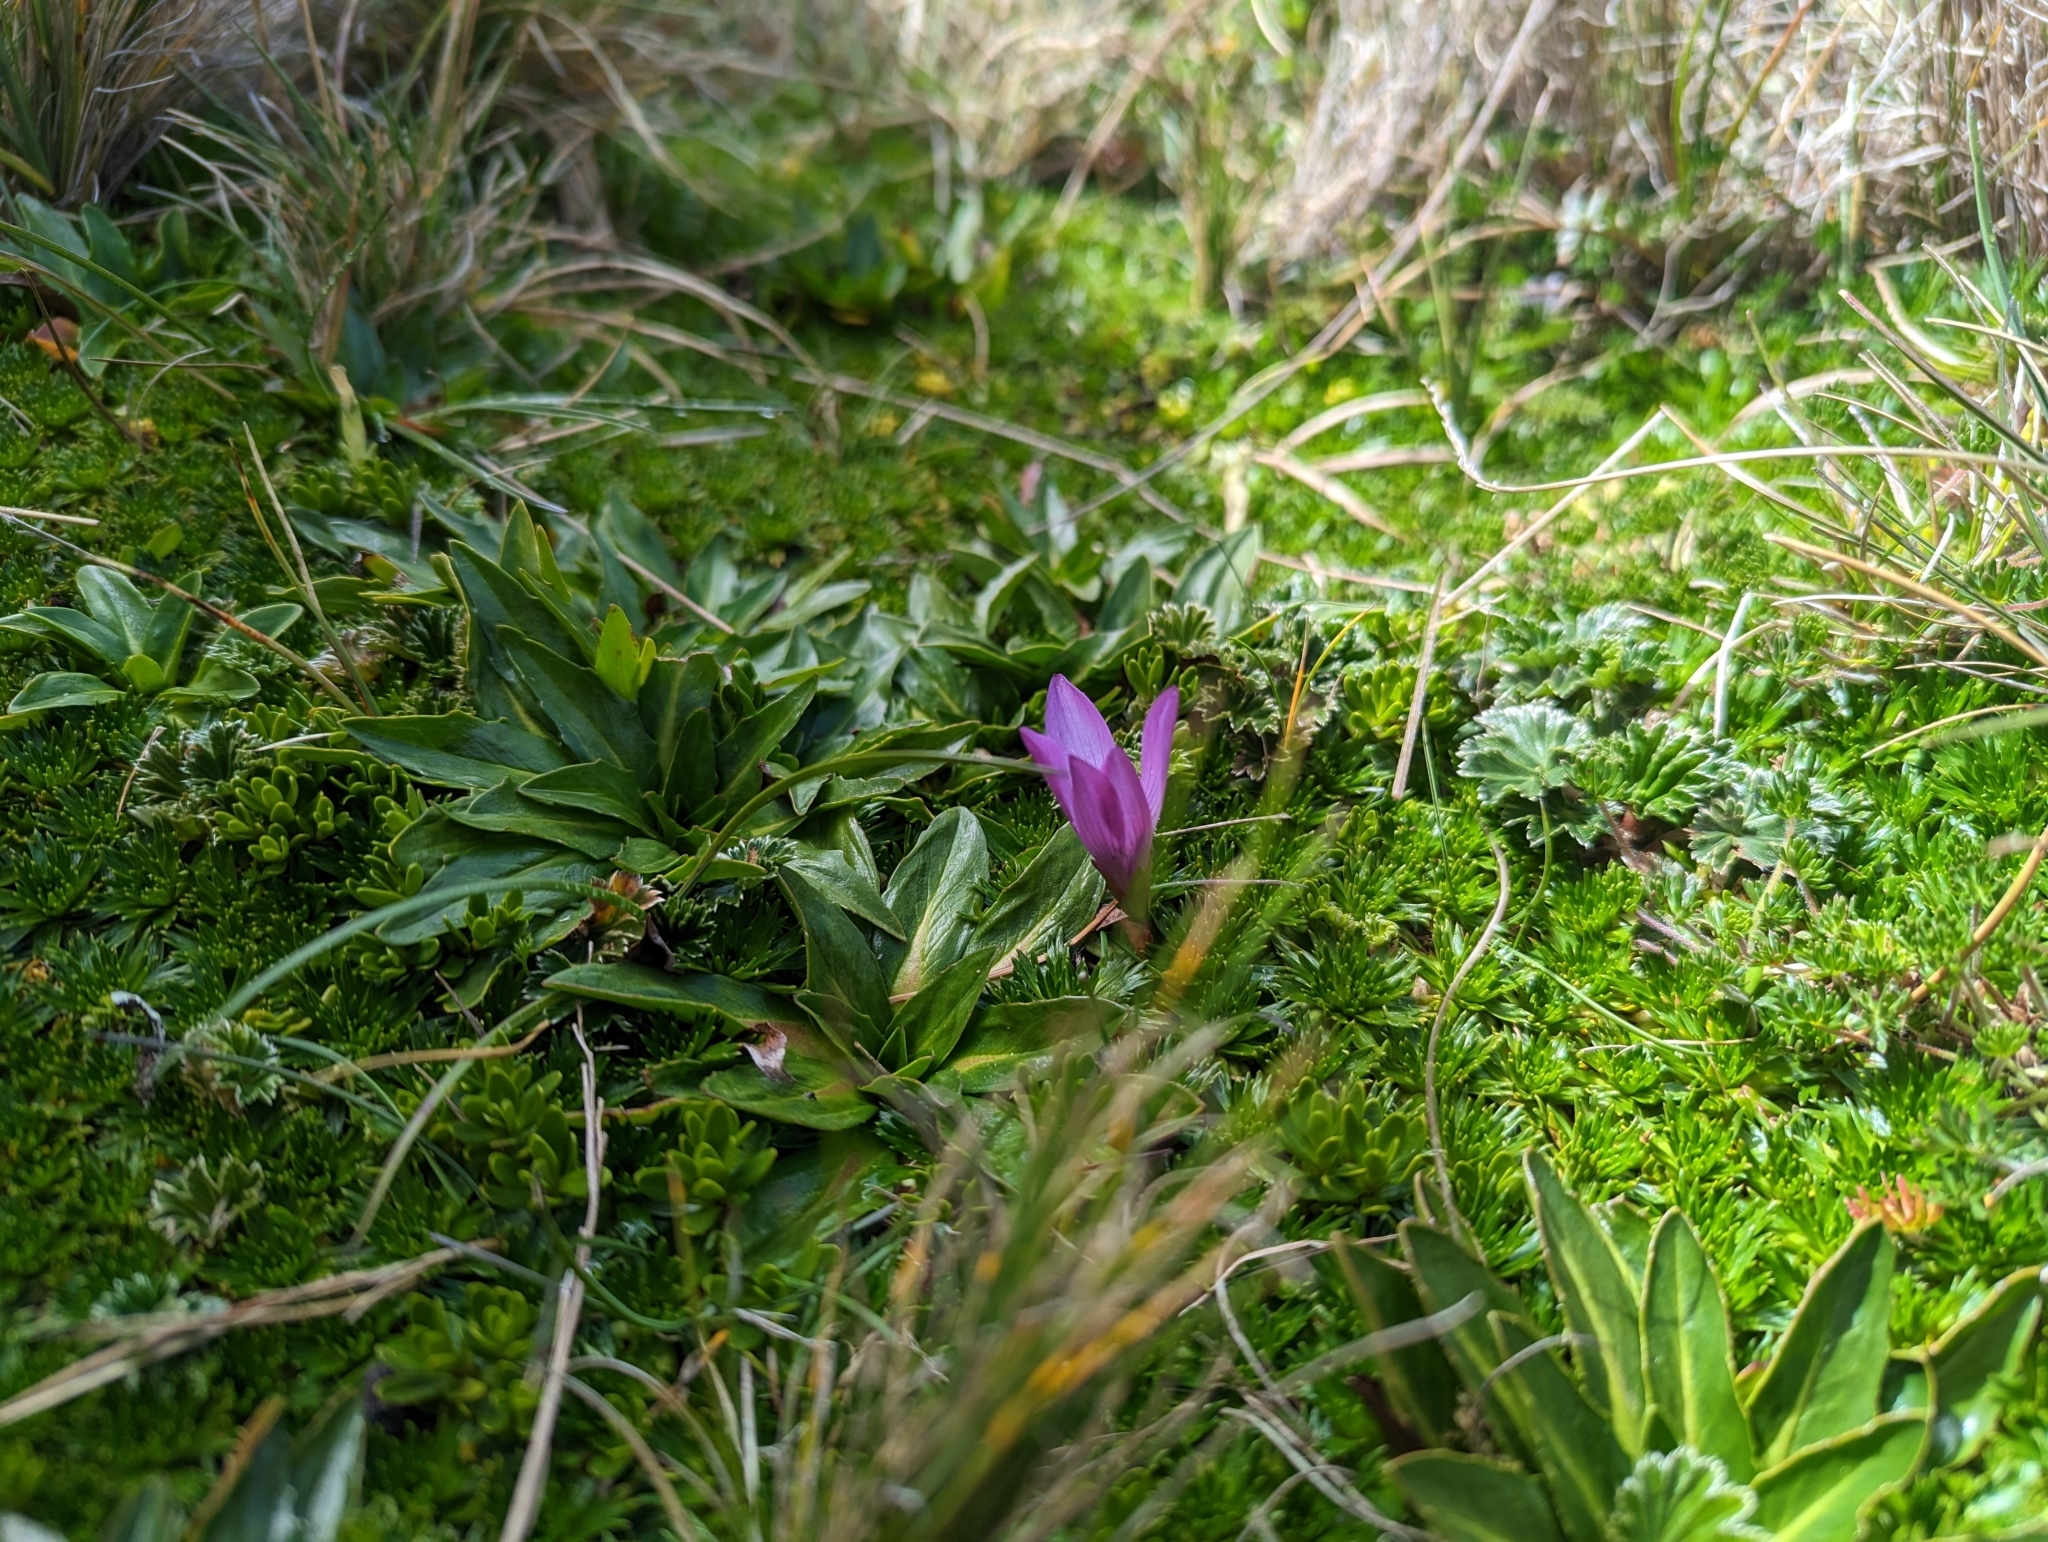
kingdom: Plantae
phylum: Tracheophyta
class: Magnoliopsida
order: Gentianales
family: Gentianaceae
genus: Gentianella
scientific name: Gentianella cerastioides
